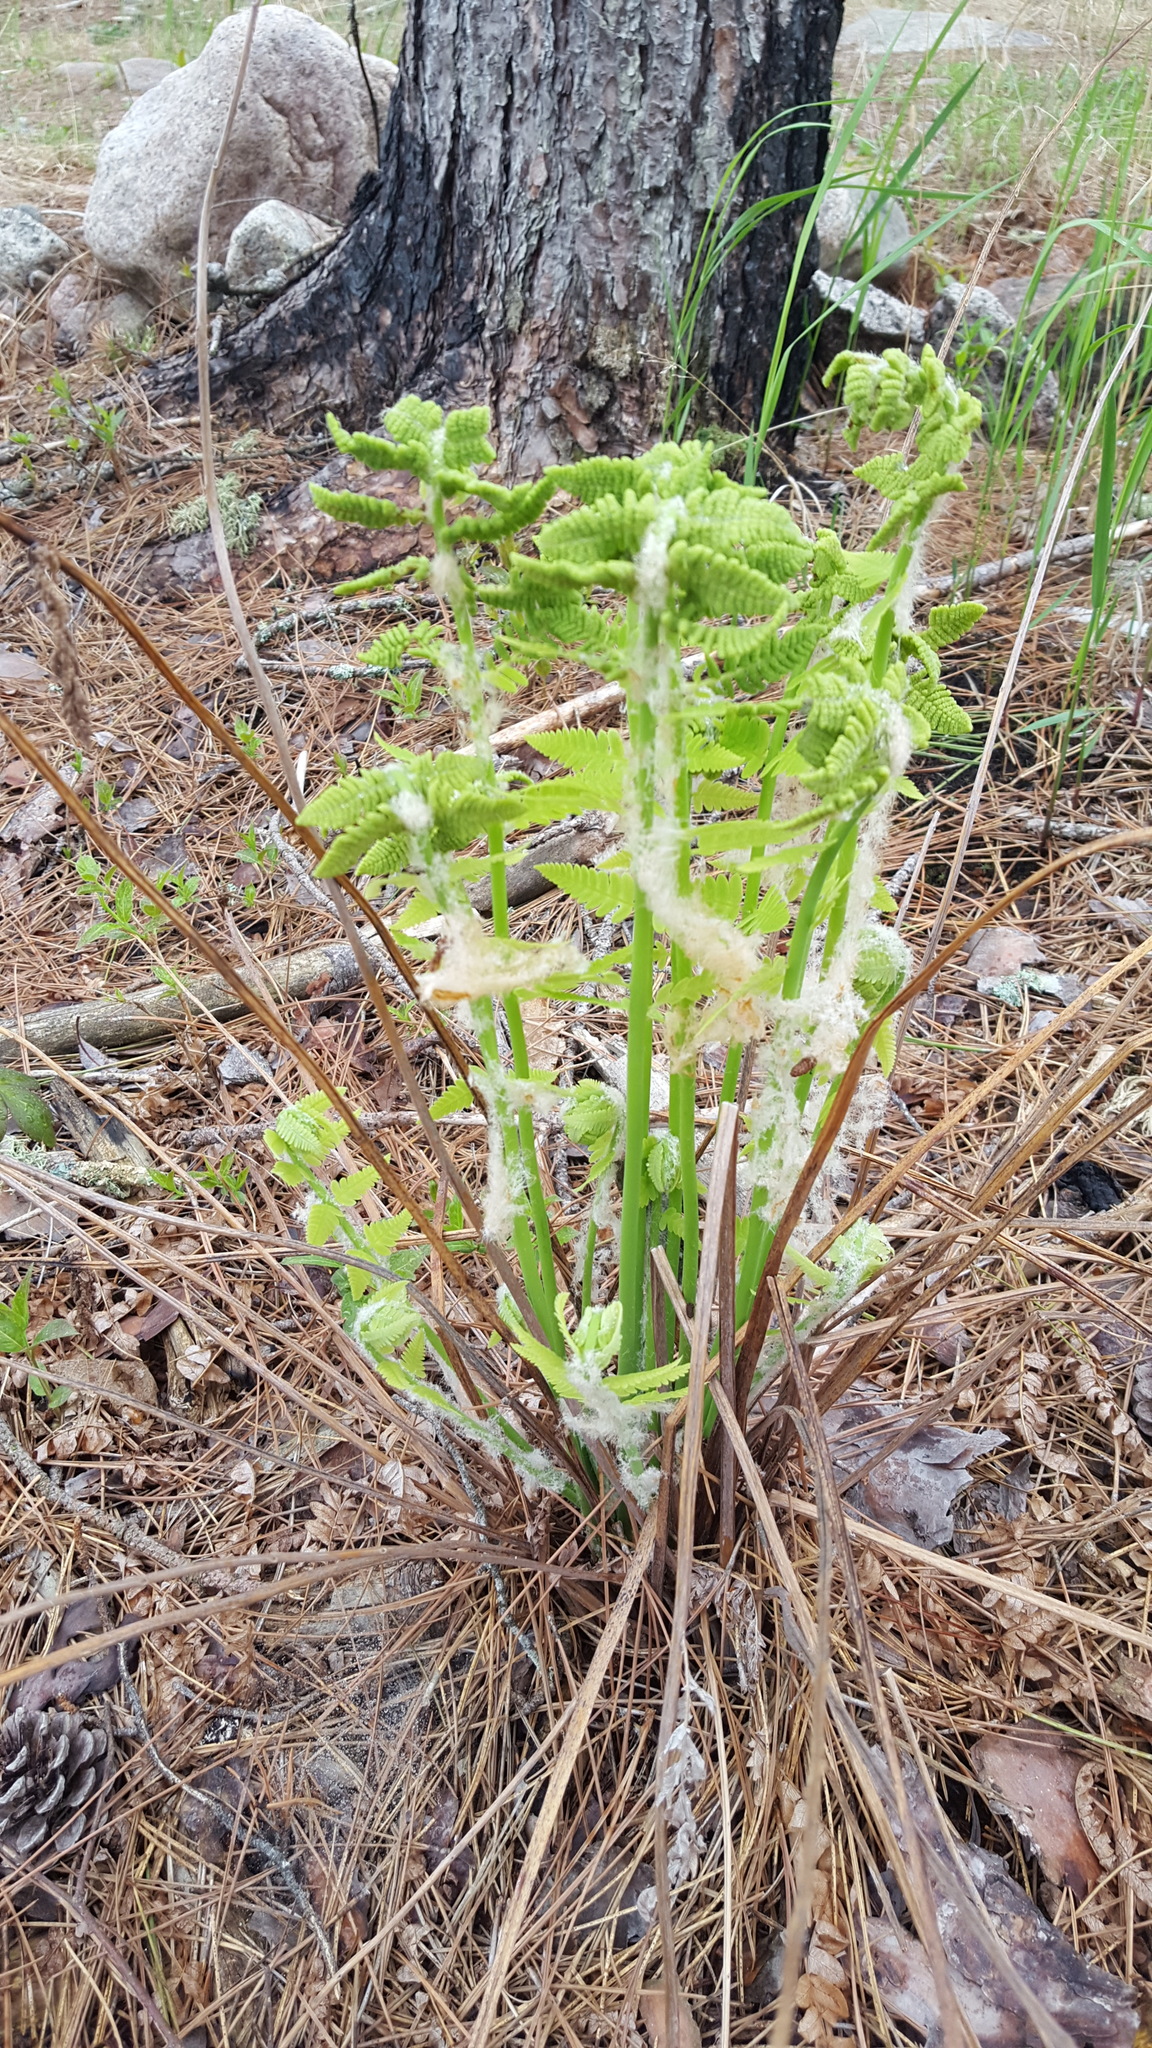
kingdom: Plantae
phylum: Tracheophyta
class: Polypodiopsida
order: Osmundales
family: Osmundaceae
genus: Claytosmunda
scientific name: Claytosmunda claytoniana
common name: Clayton's fern
